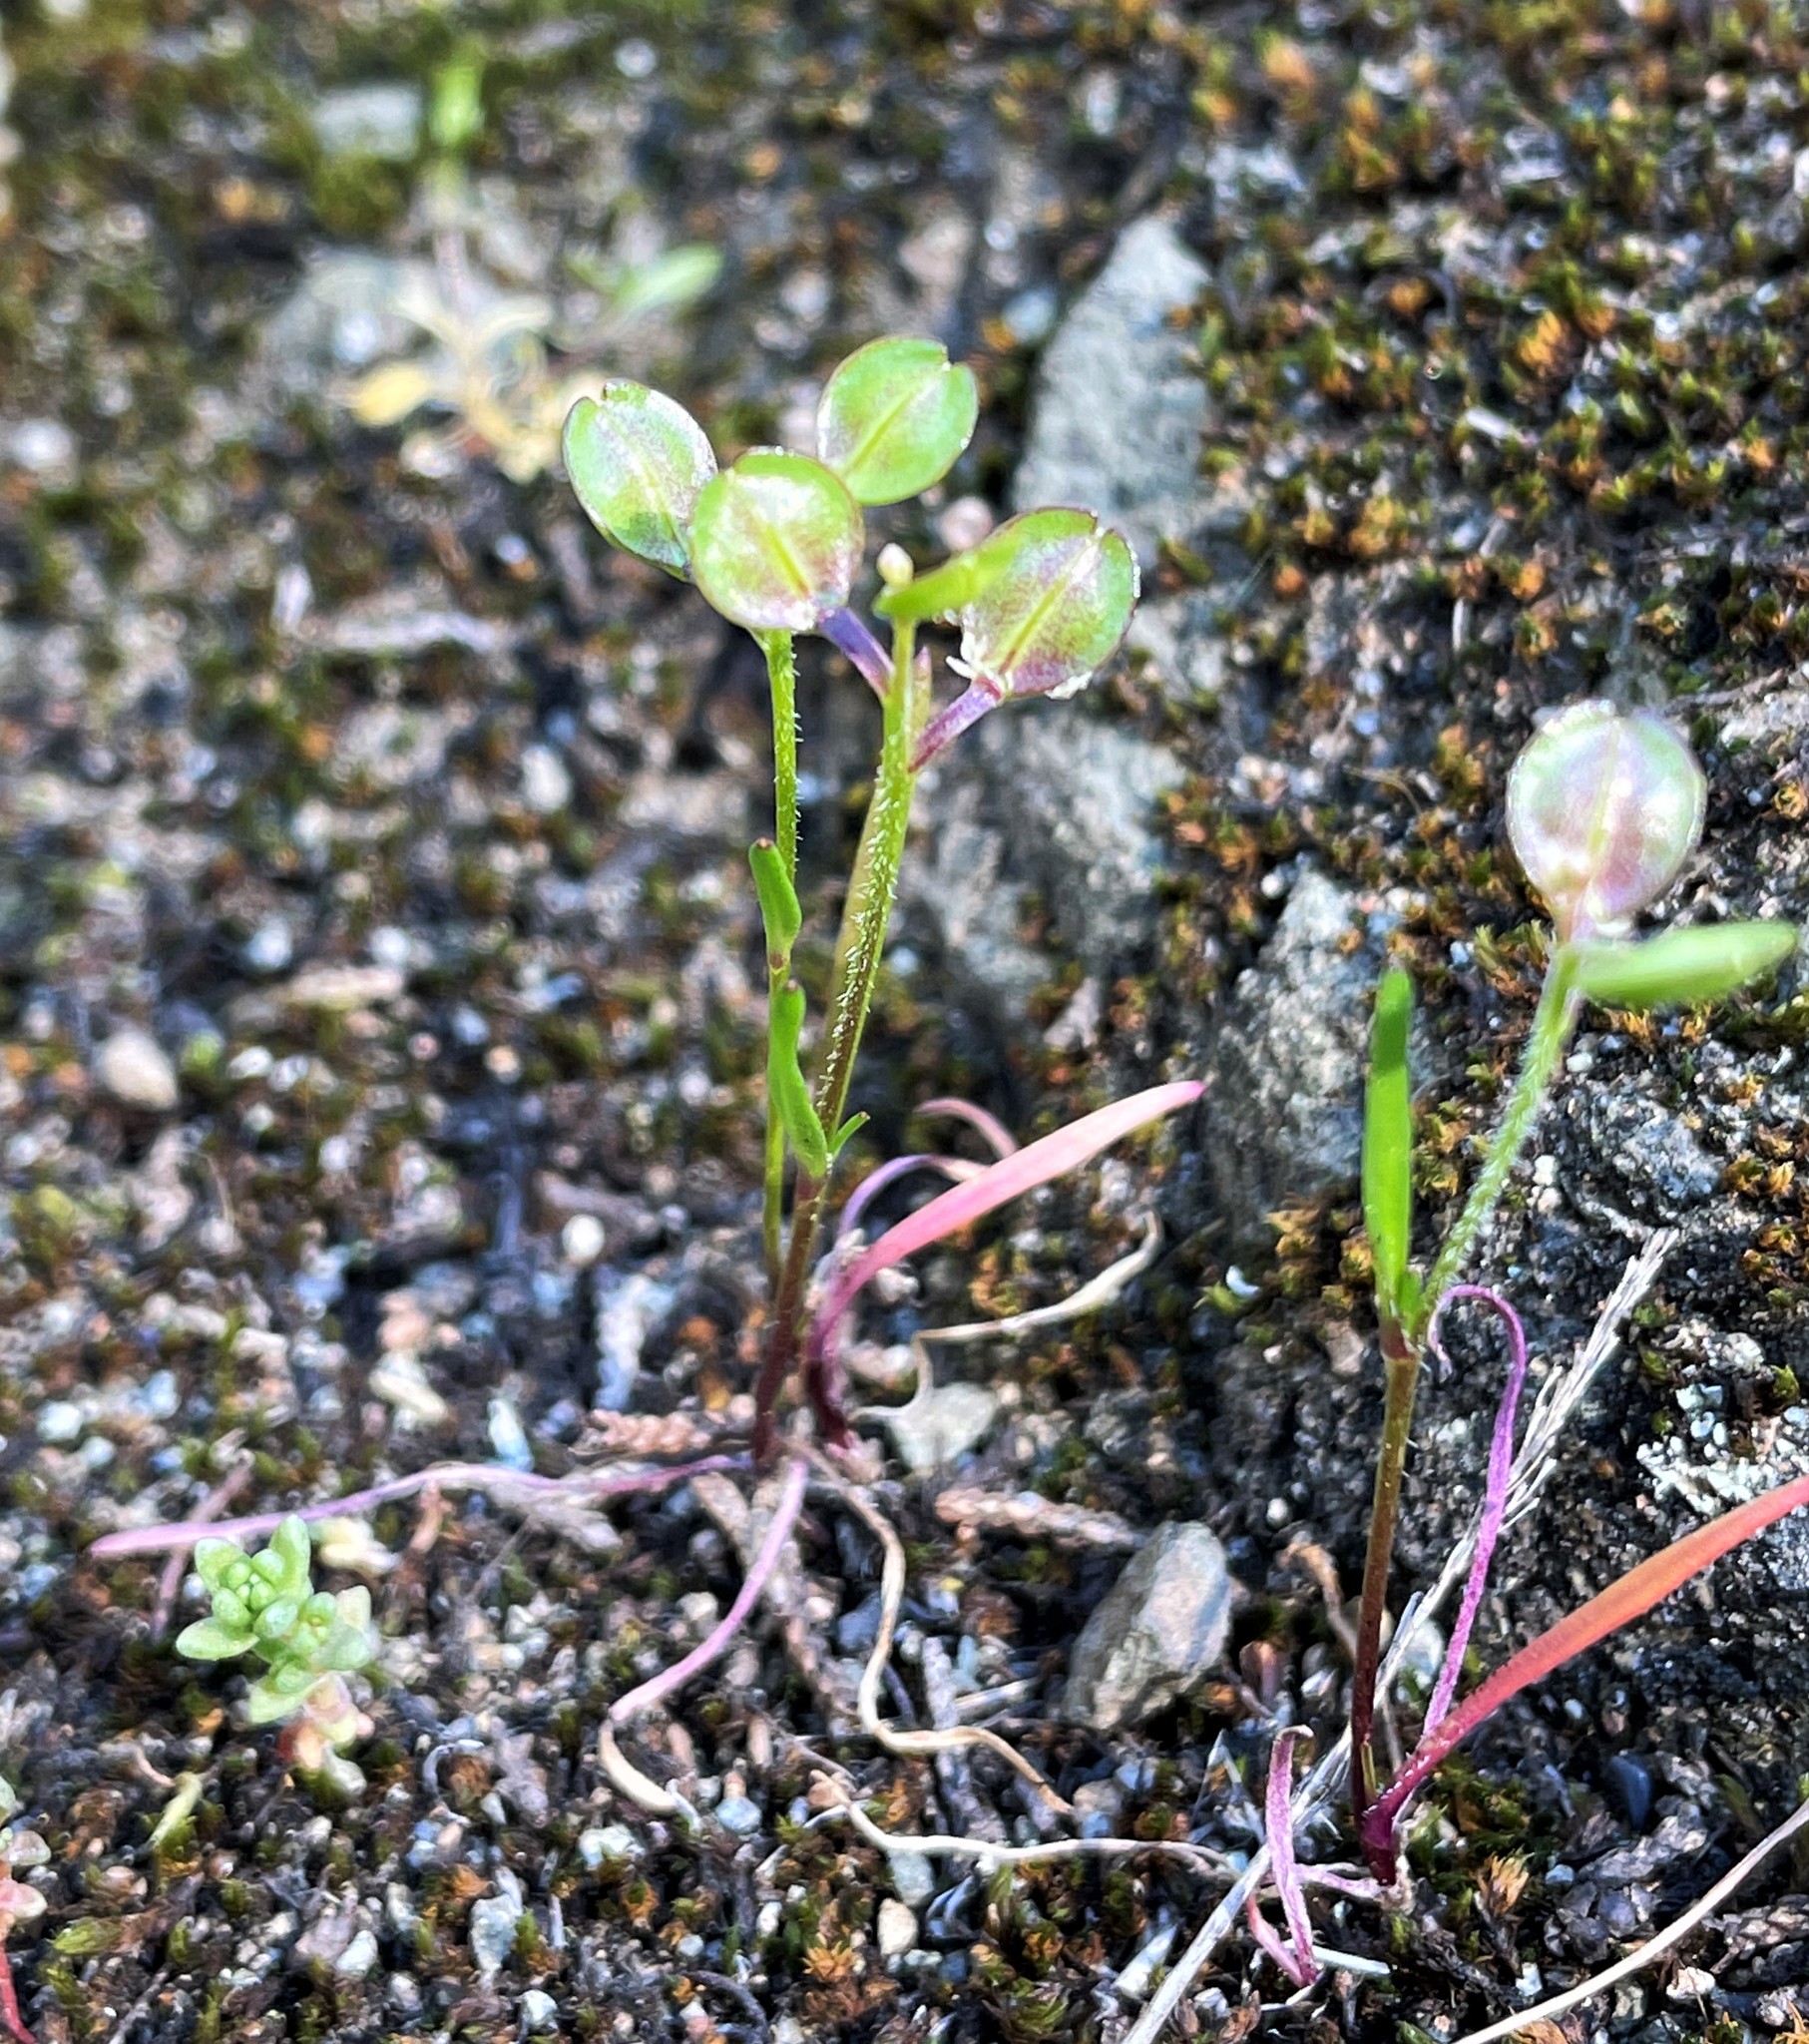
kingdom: Plantae
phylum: Tracheophyta
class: Magnoliopsida
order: Brassicales
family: Brassicaceae
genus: Lepidium
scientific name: Lepidium nitidum
